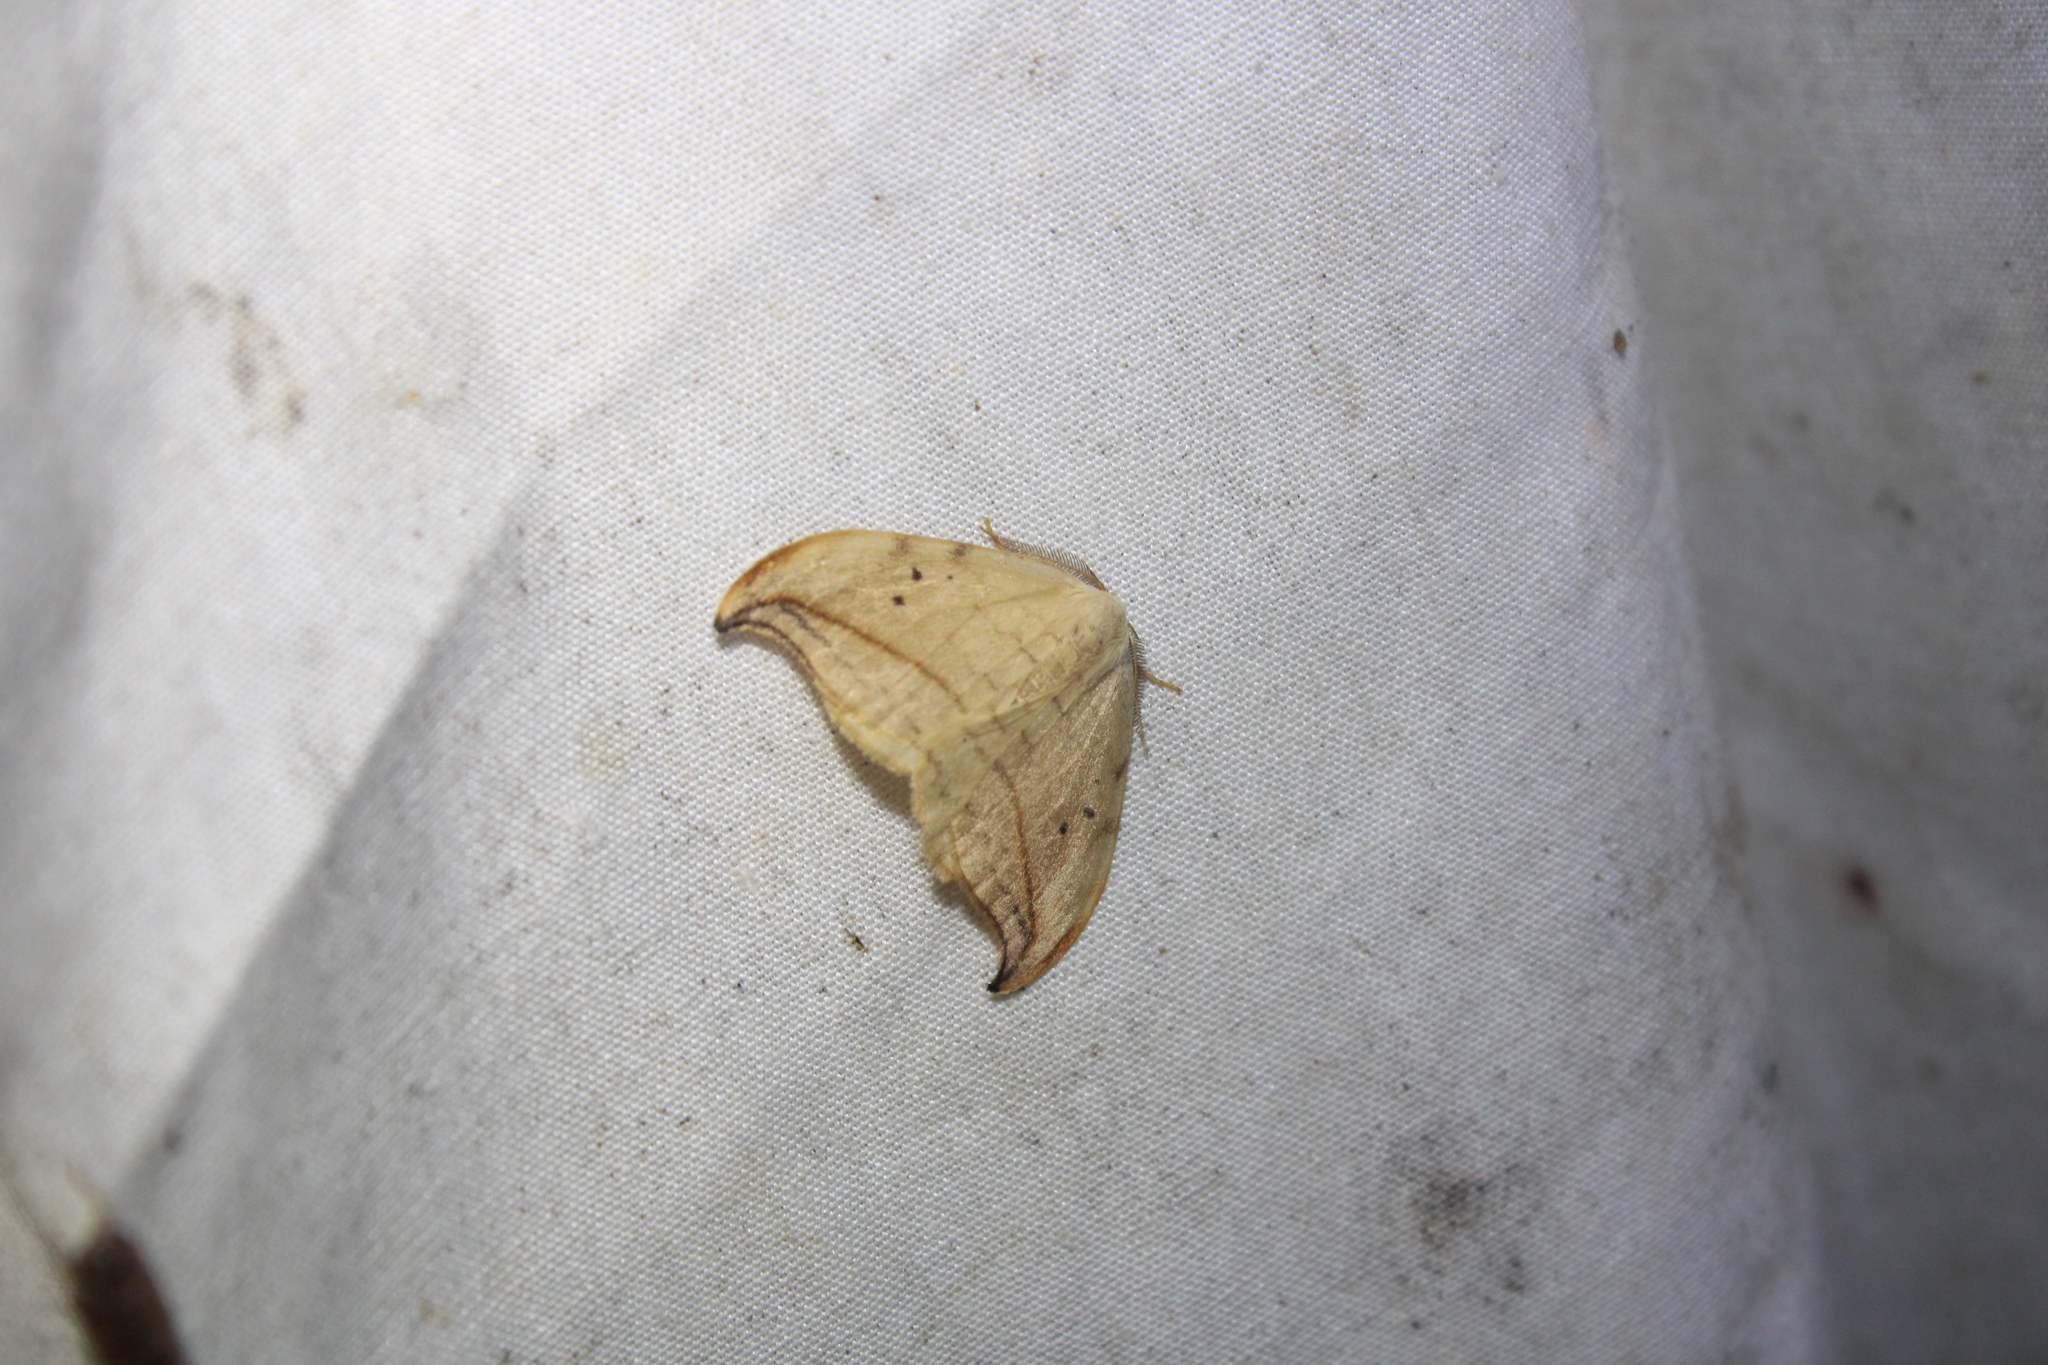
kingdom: Animalia
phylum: Arthropoda
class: Insecta
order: Lepidoptera
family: Drepanidae
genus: Drepana
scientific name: Drepana arcuata
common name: Arched hooktip moth
